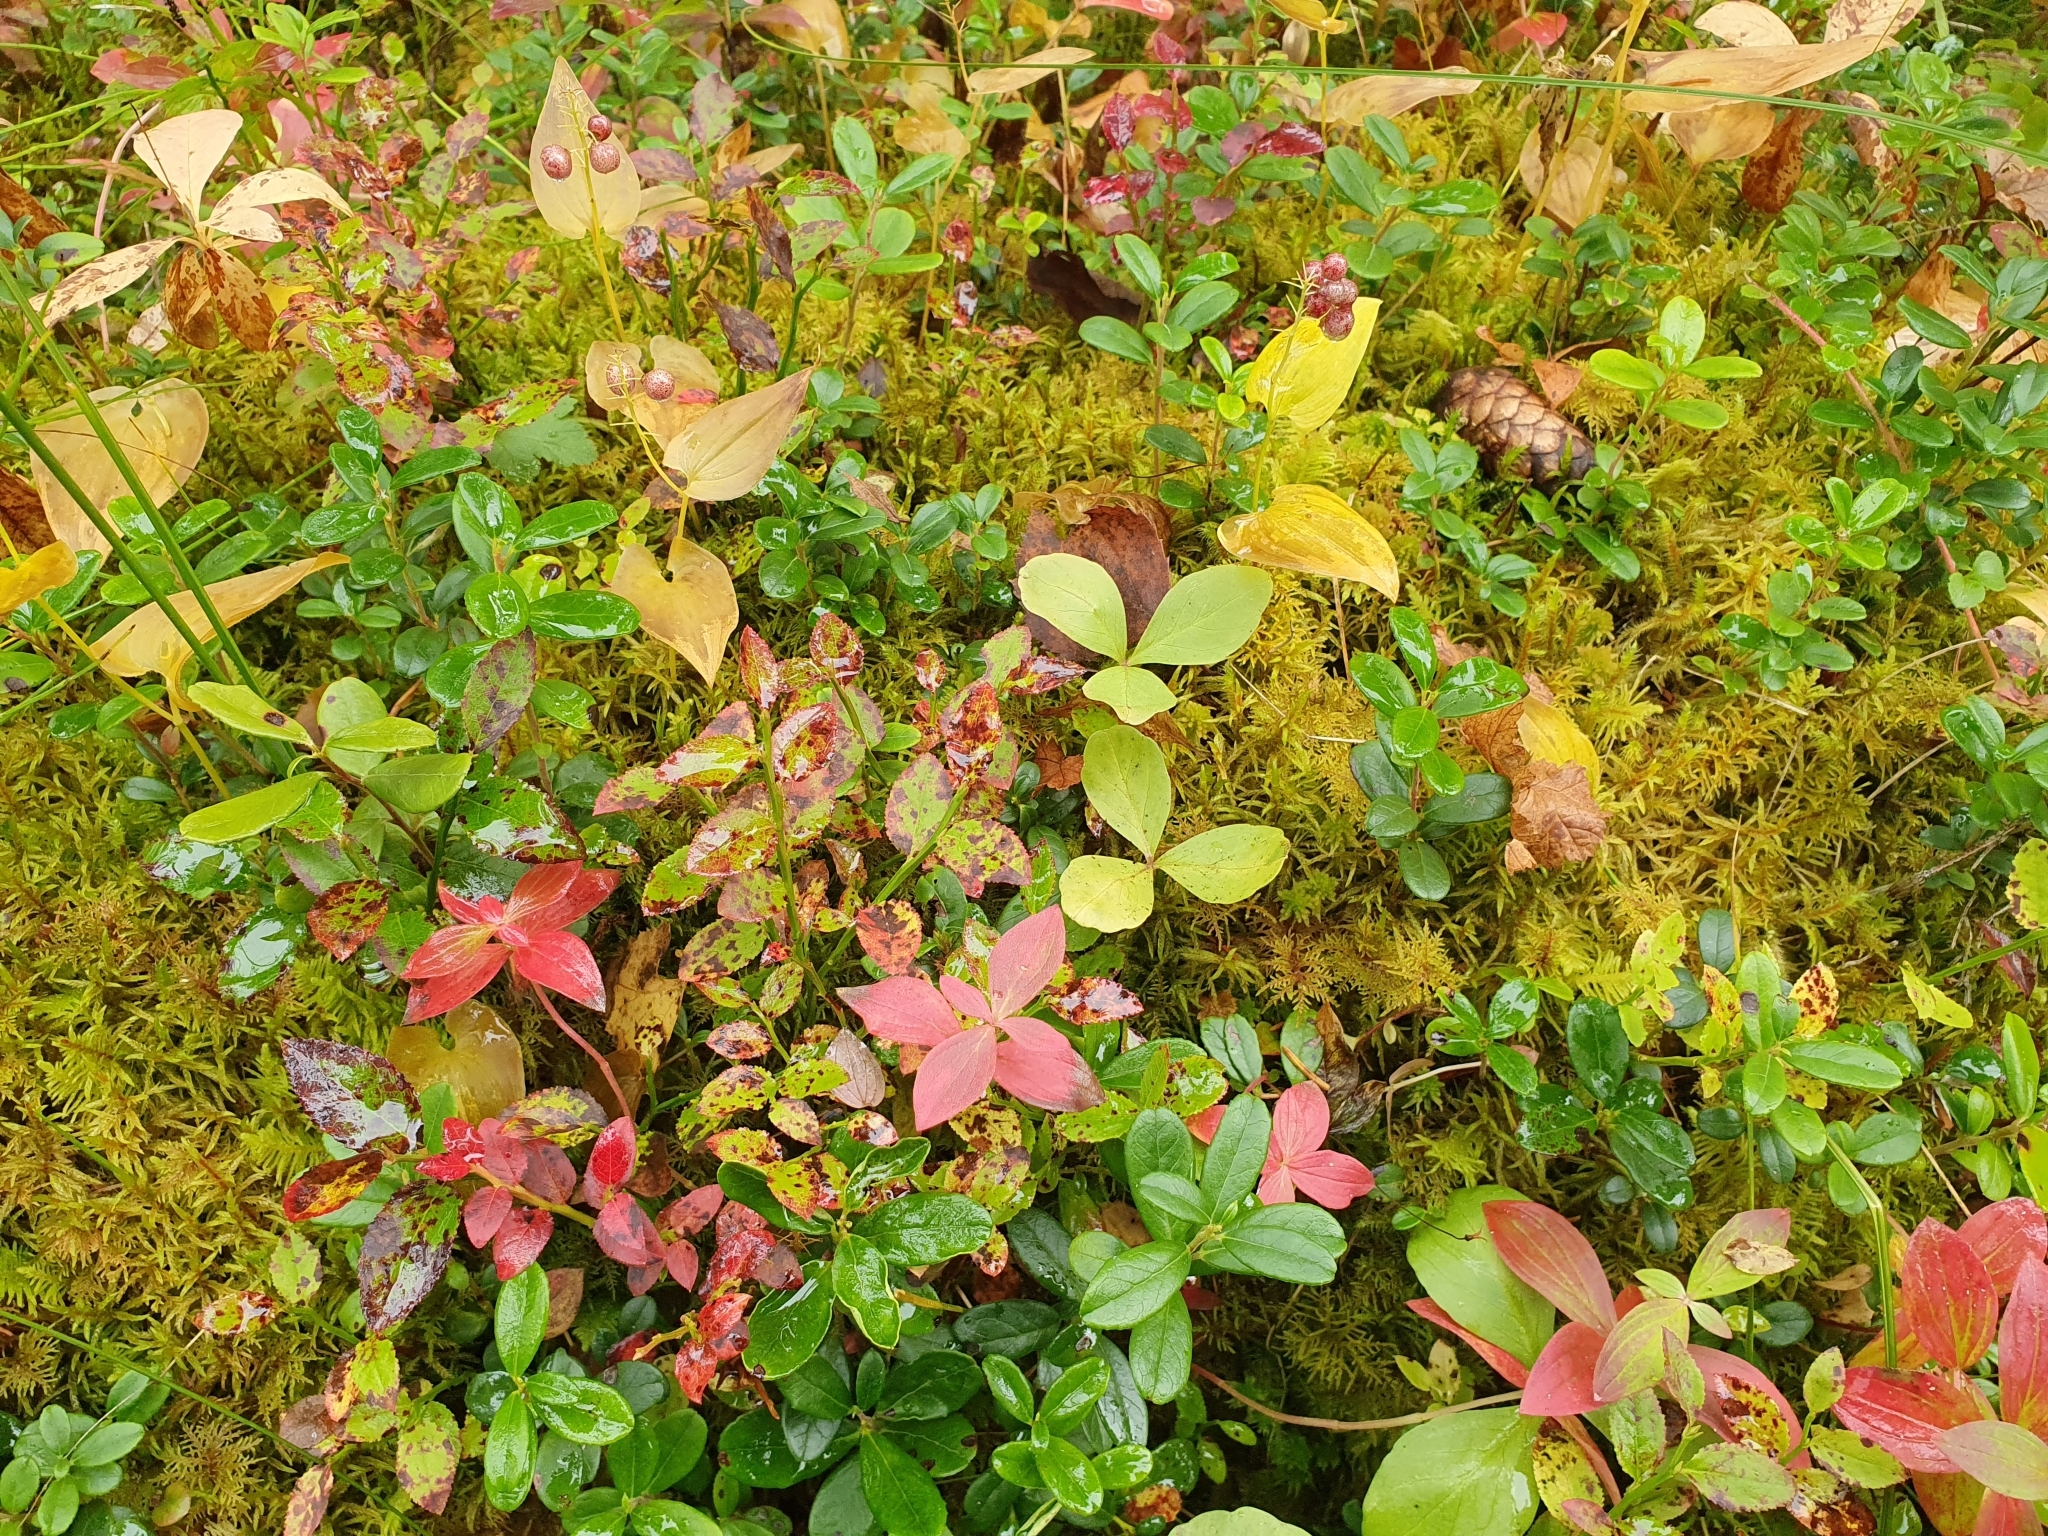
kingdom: Plantae
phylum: Tracheophyta
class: Magnoliopsida
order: Asterales
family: Menyanthaceae
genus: Menyanthes
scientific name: Menyanthes trifoliata
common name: Bogbean
